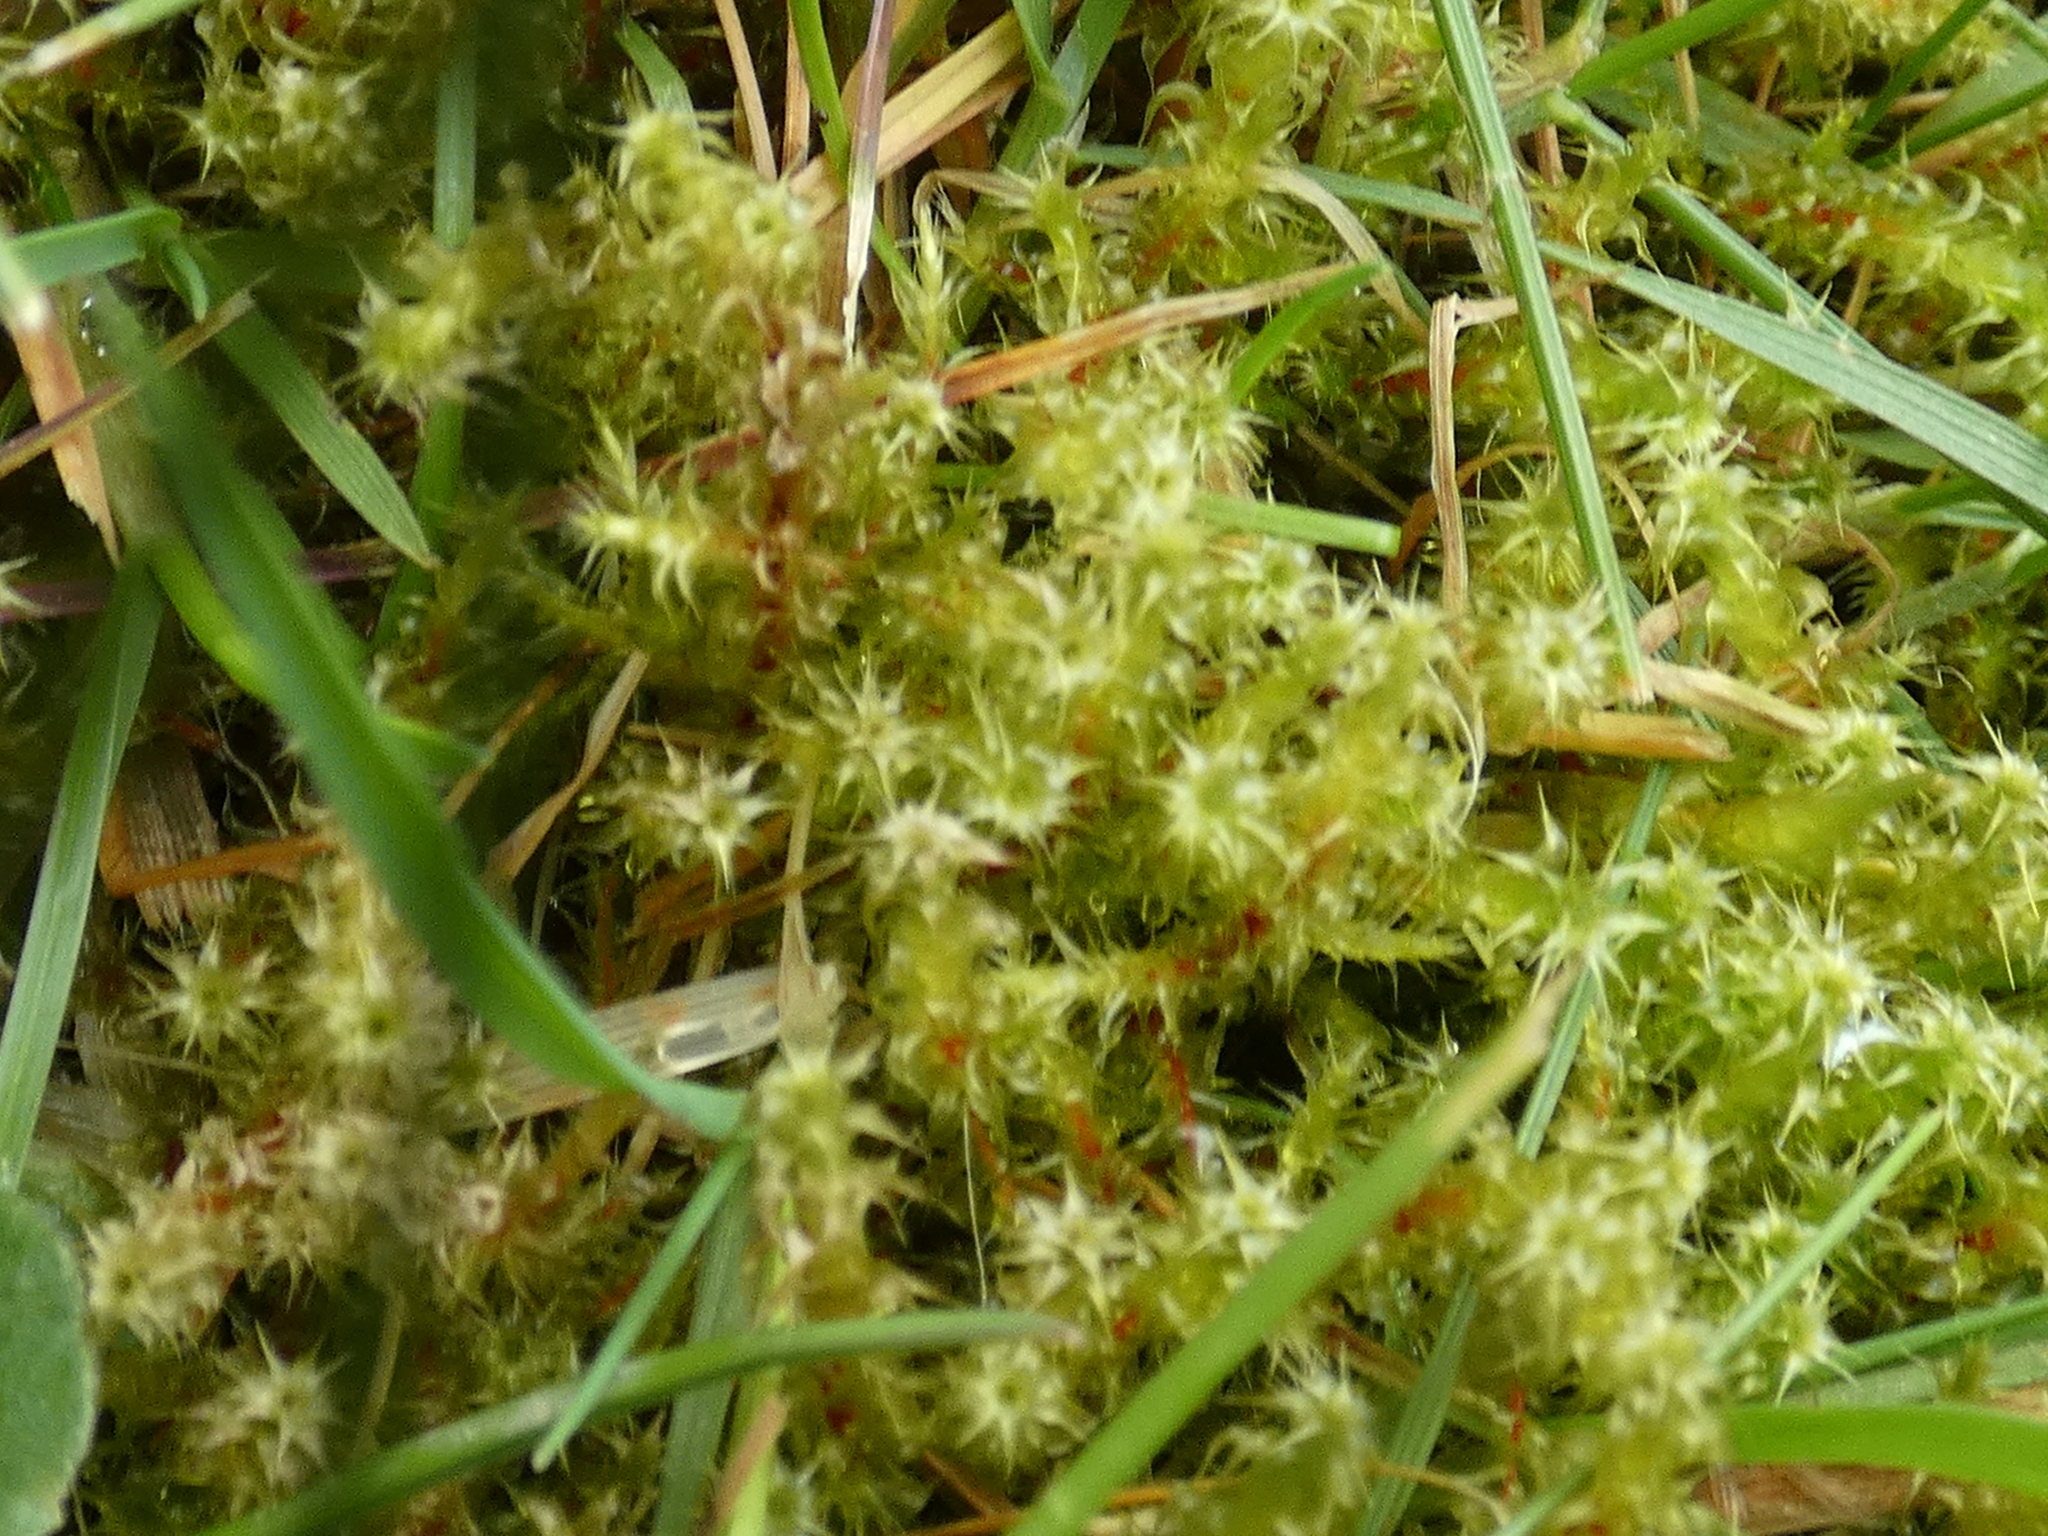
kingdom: Plantae
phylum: Bryophyta
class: Bryopsida
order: Hypnales
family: Hylocomiaceae
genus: Rhytidiadelphus
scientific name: Rhytidiadelphus squarrosus
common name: Springy turf-moss
